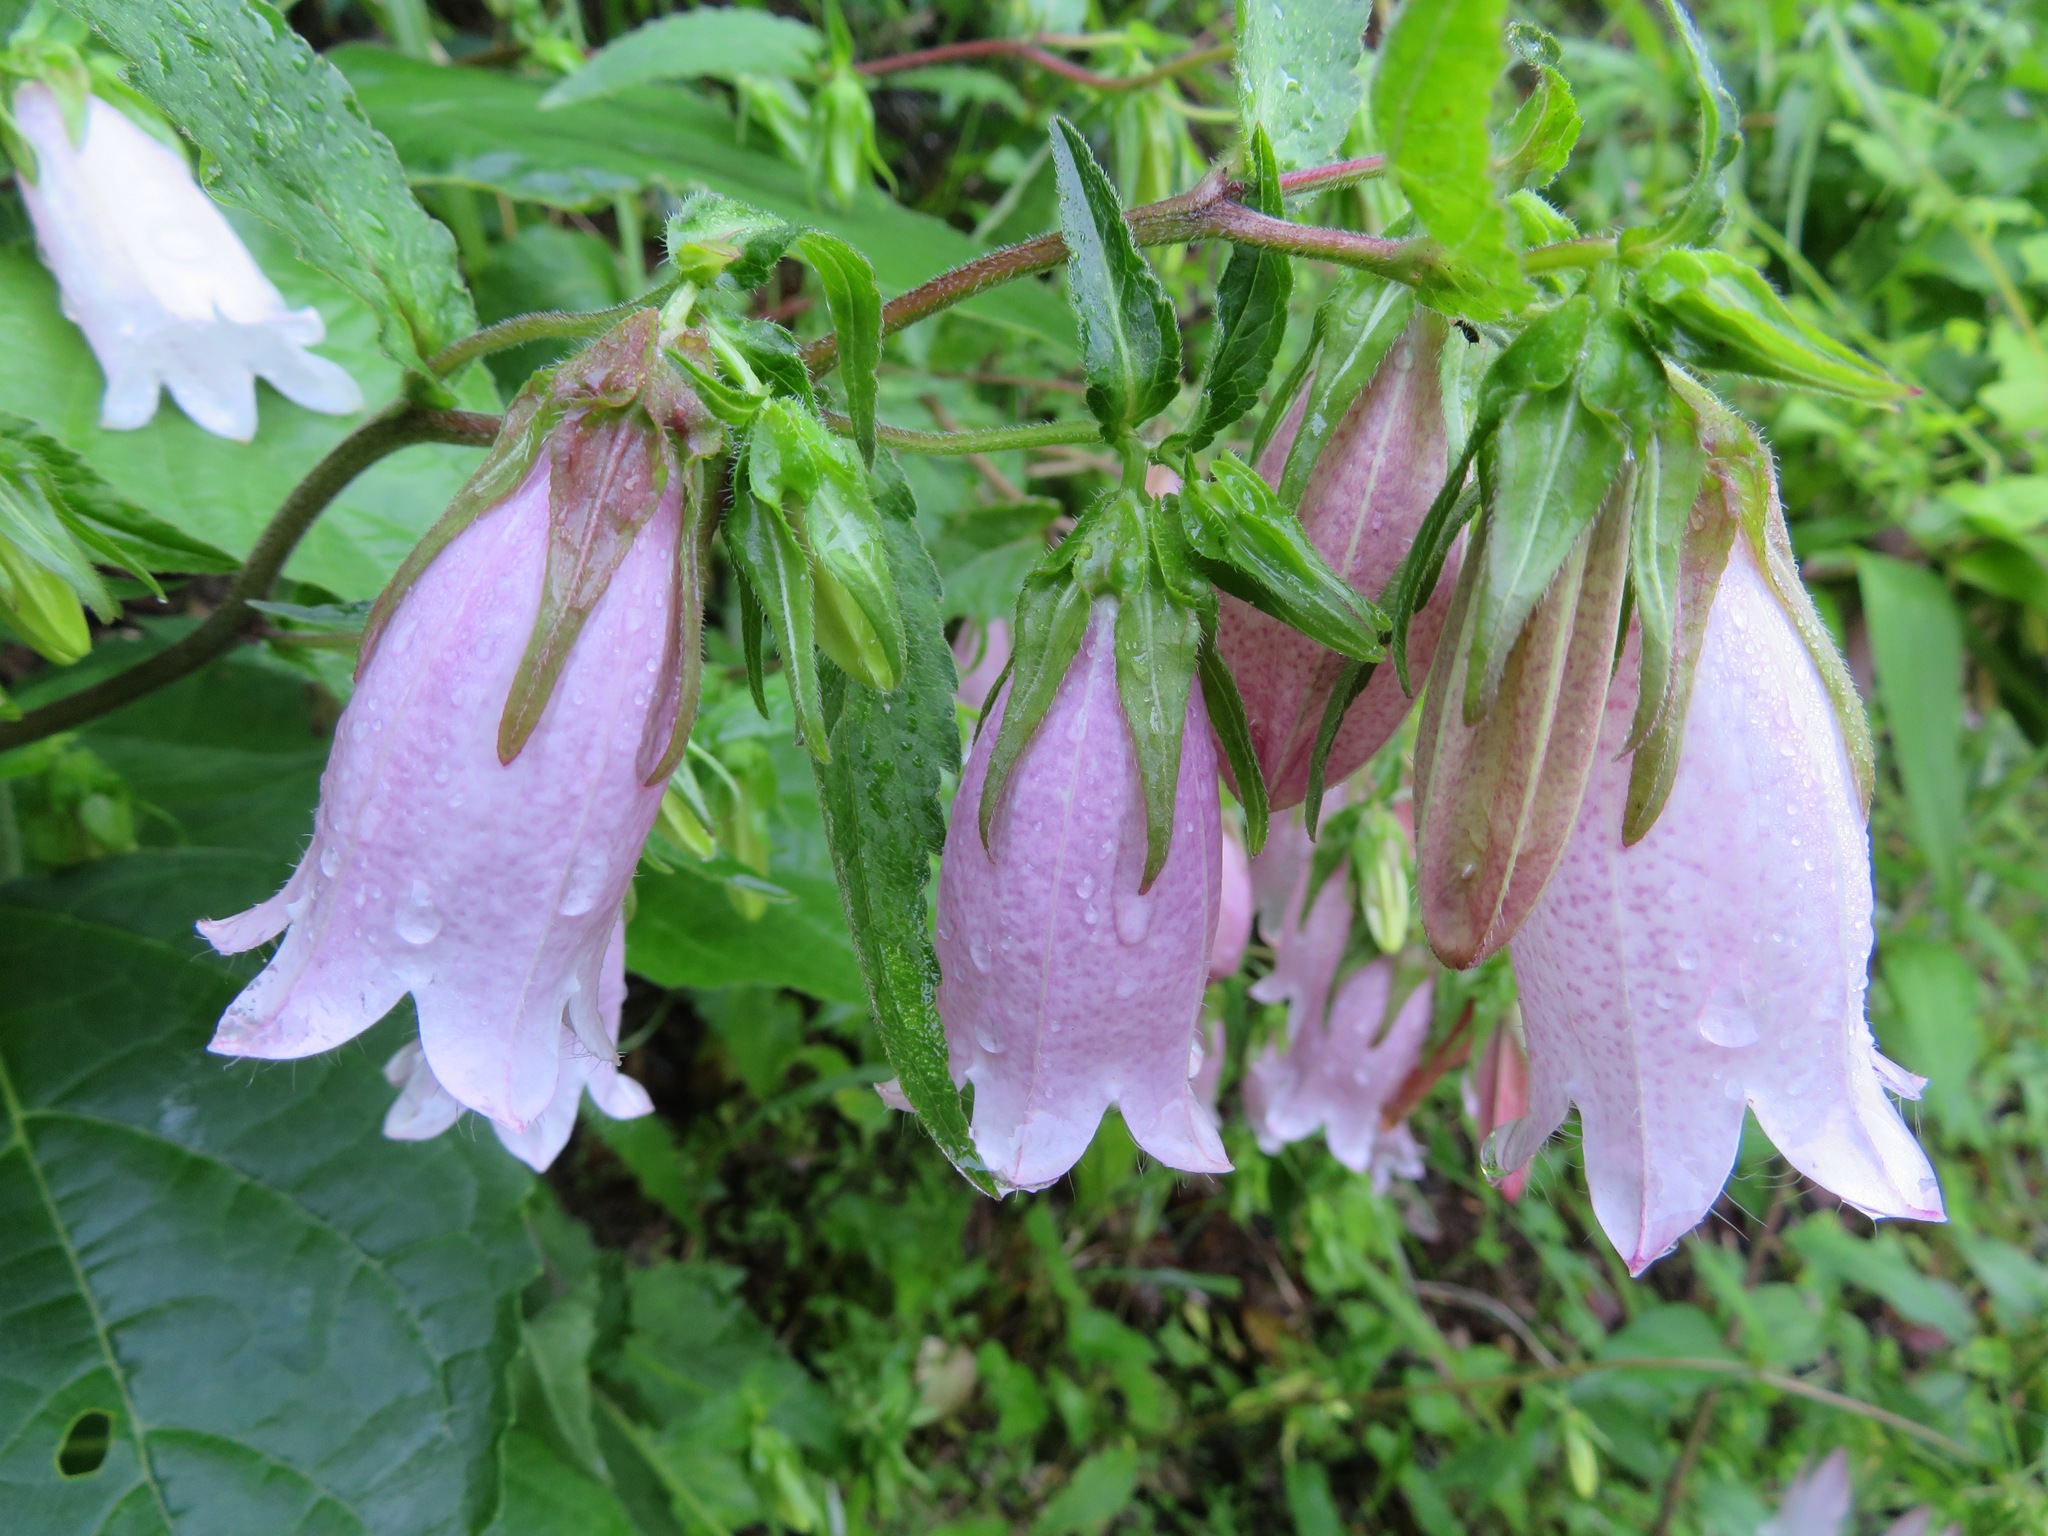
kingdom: Plantae
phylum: Tracheophyta
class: Magnoliopsida
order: Asterales
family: Campanulaceae
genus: Campanula
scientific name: Campanula punctata
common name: Spotted bellflower
